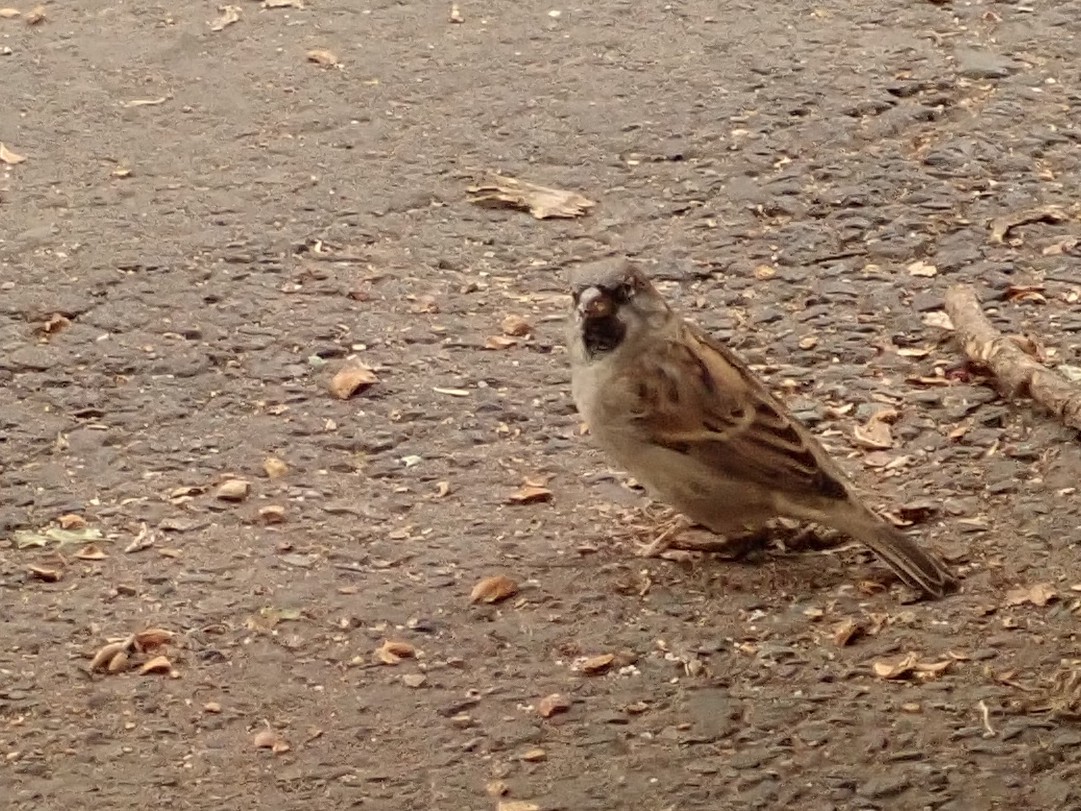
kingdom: Animalia
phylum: Chordata
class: Aves
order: Passeriformes
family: Passeridae
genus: Passer
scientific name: Passer domesticus
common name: House sparrow
